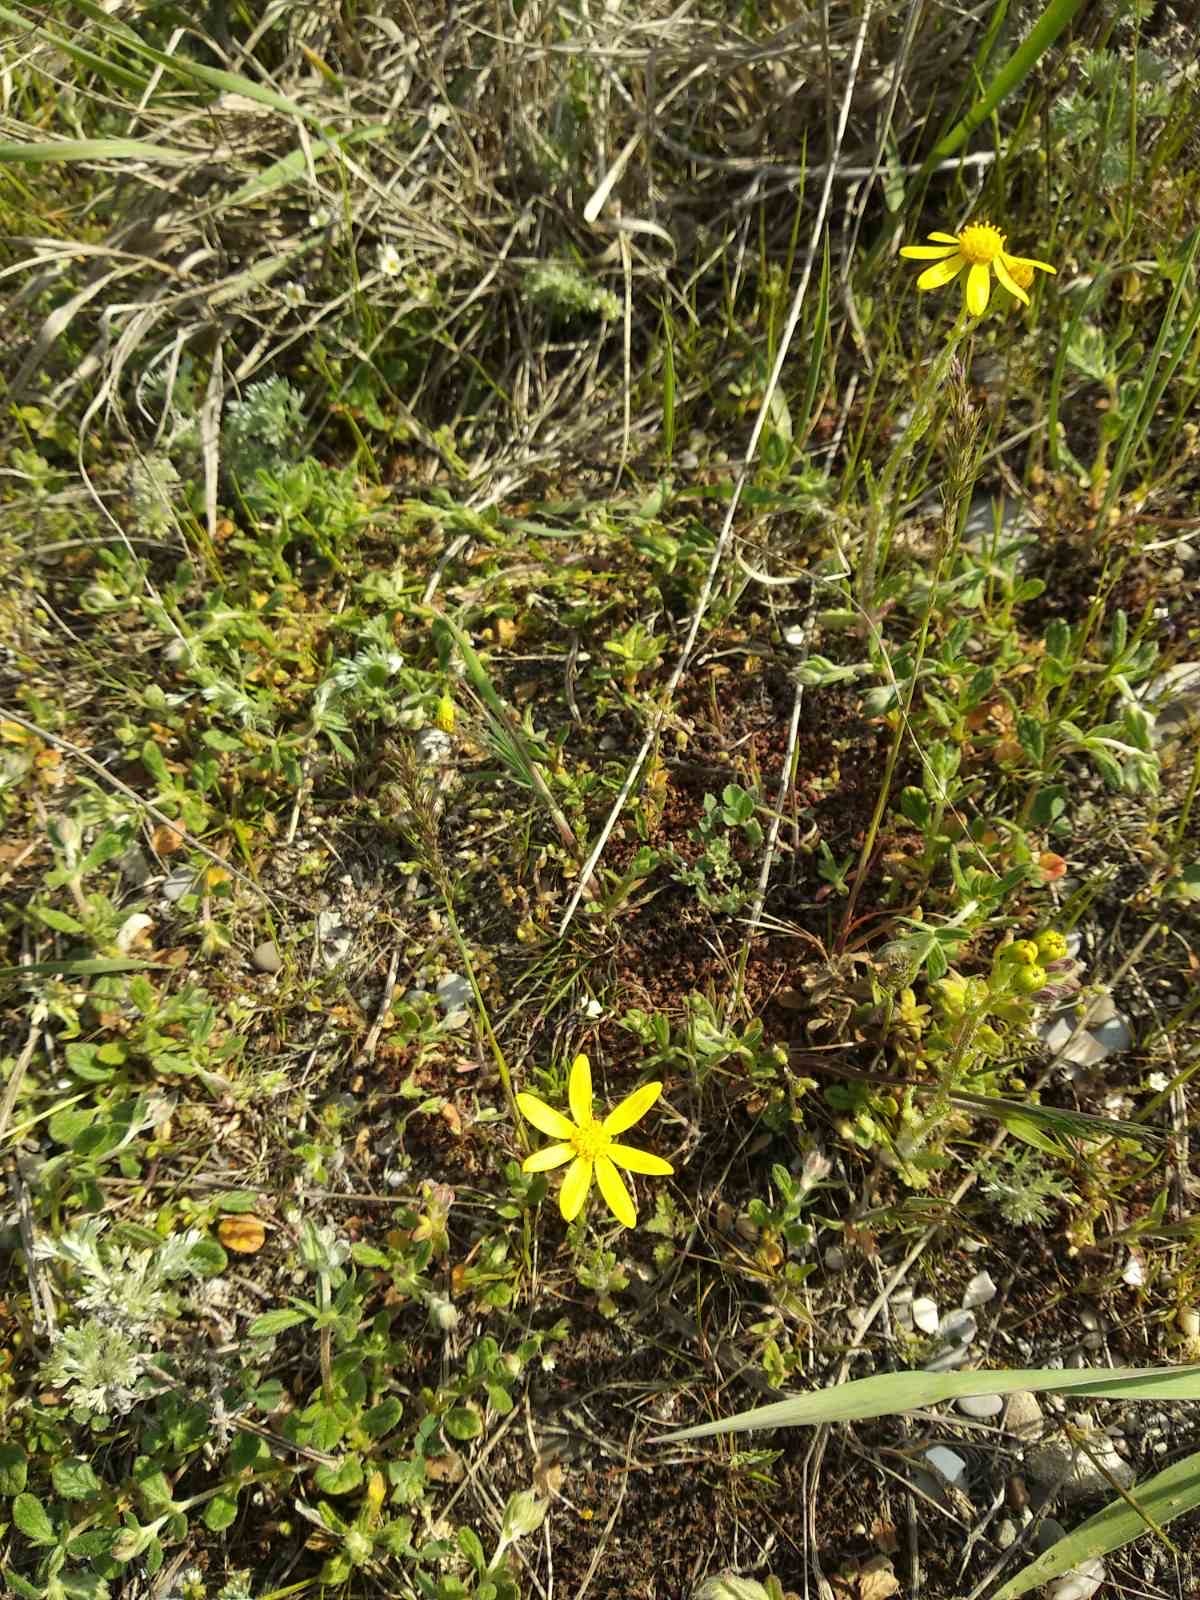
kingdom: Plantae
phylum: Tracheophyta
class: Magnoliopsida
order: Asterales
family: Asteraceae
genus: Senecio
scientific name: Senecio vernalis
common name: Eastern groundsel
